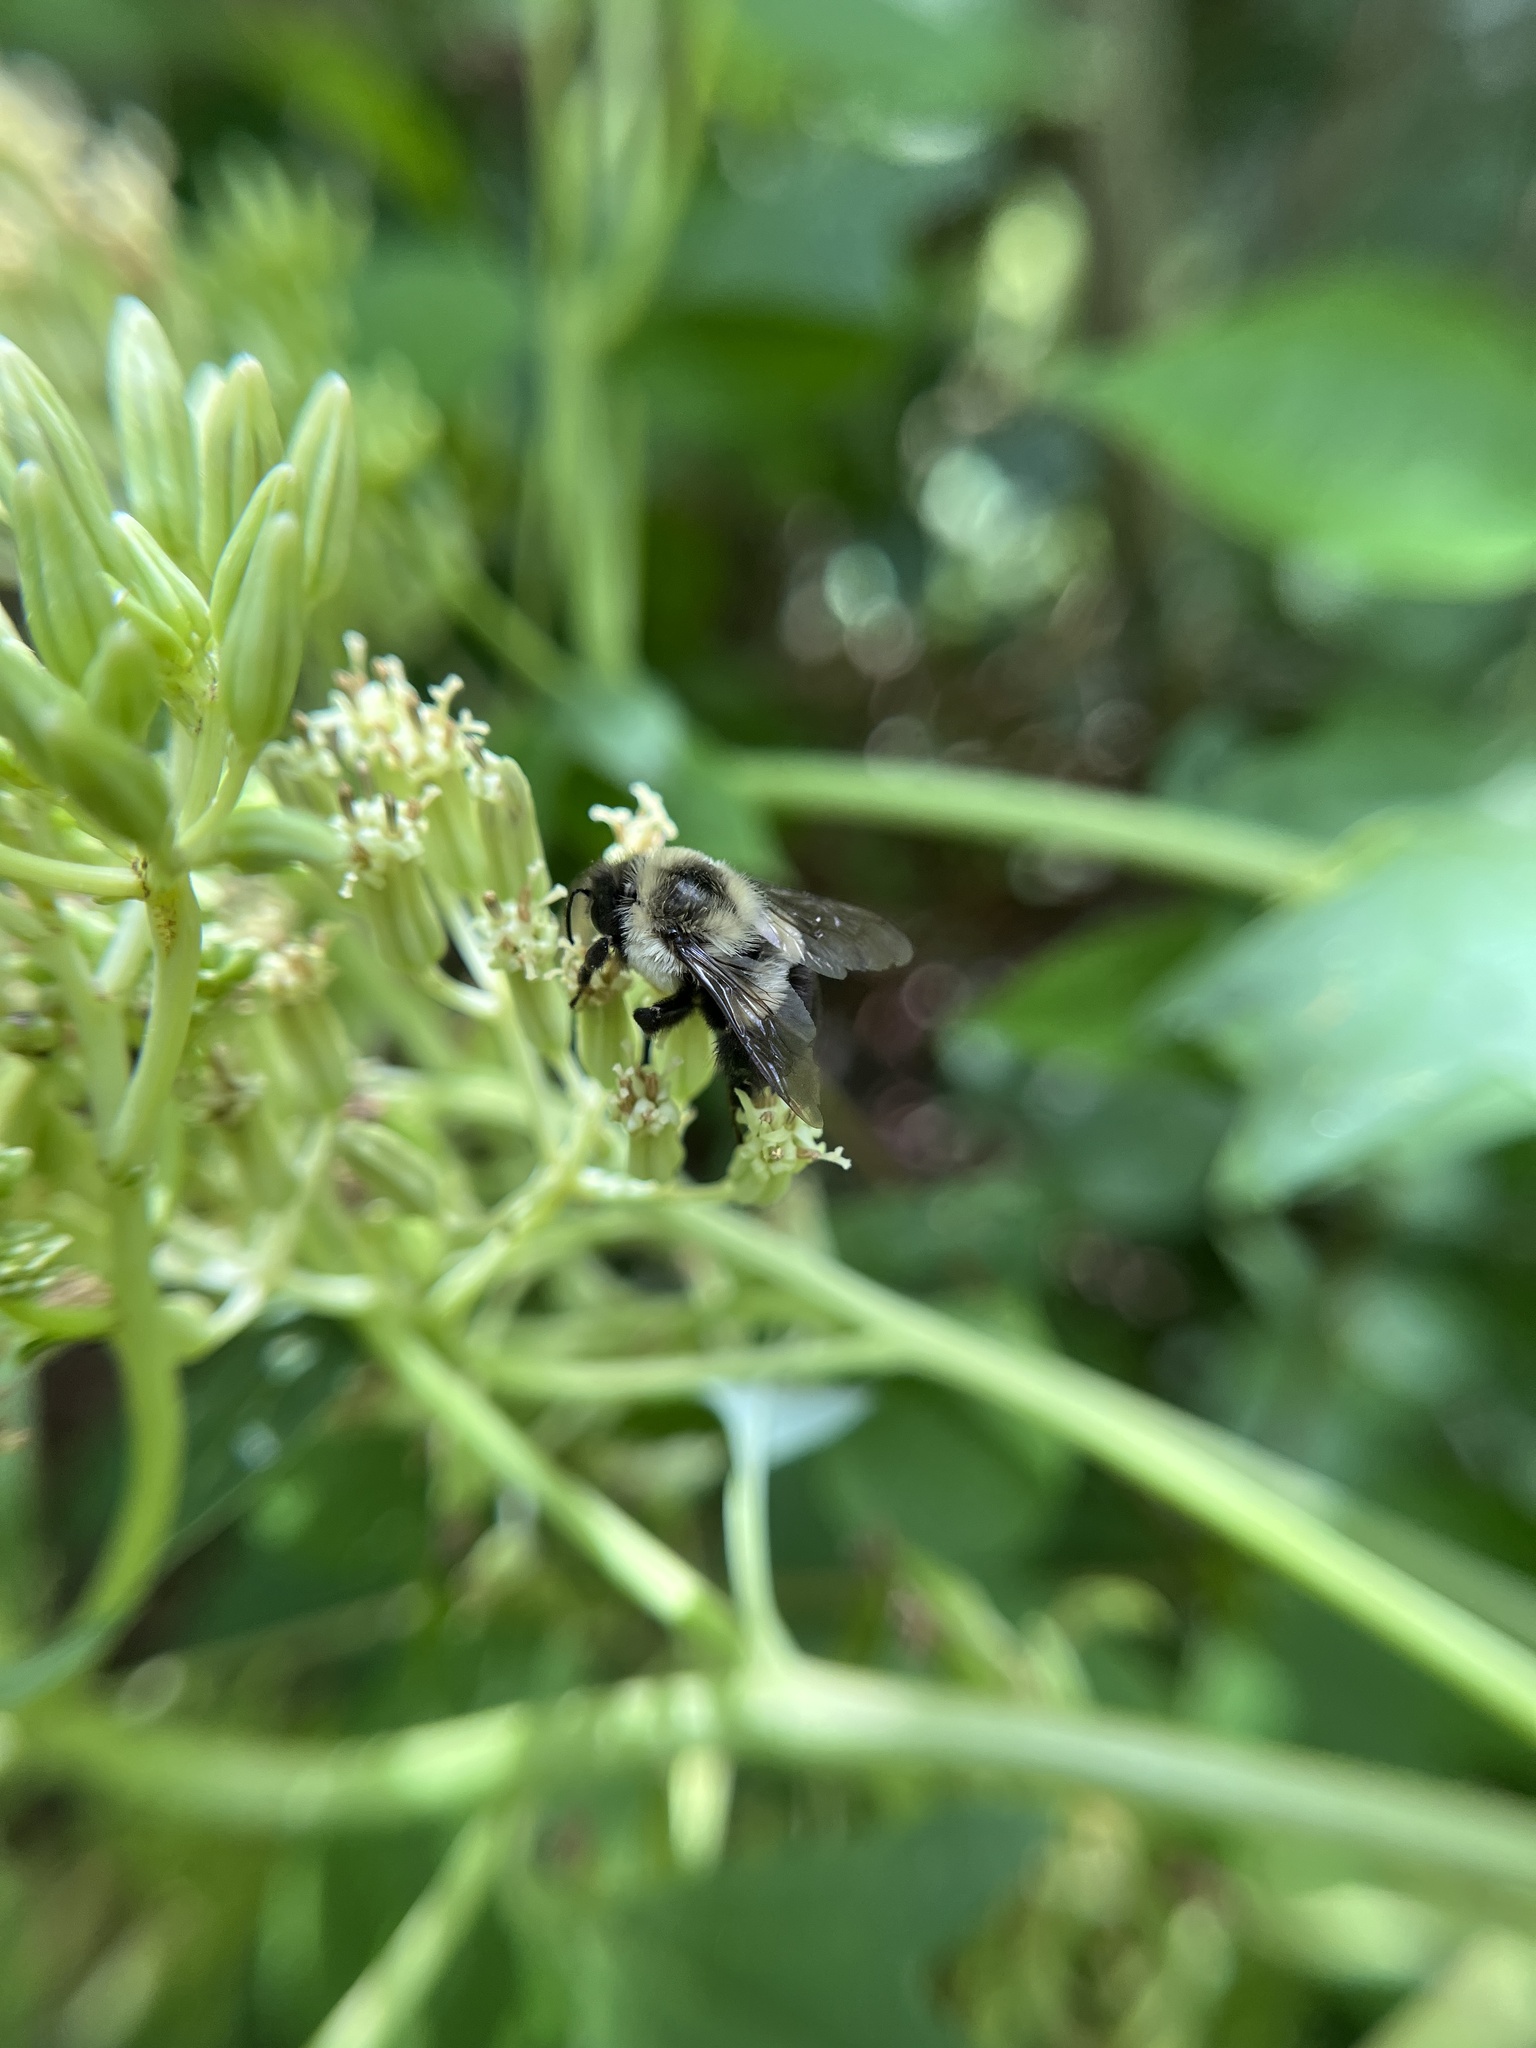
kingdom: Animalia
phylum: Arthropoda
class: Insecta
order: Hymenoptera
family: Apidae
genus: Bombus
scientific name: Bombus impatiens
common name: Common eastern bumble bee
